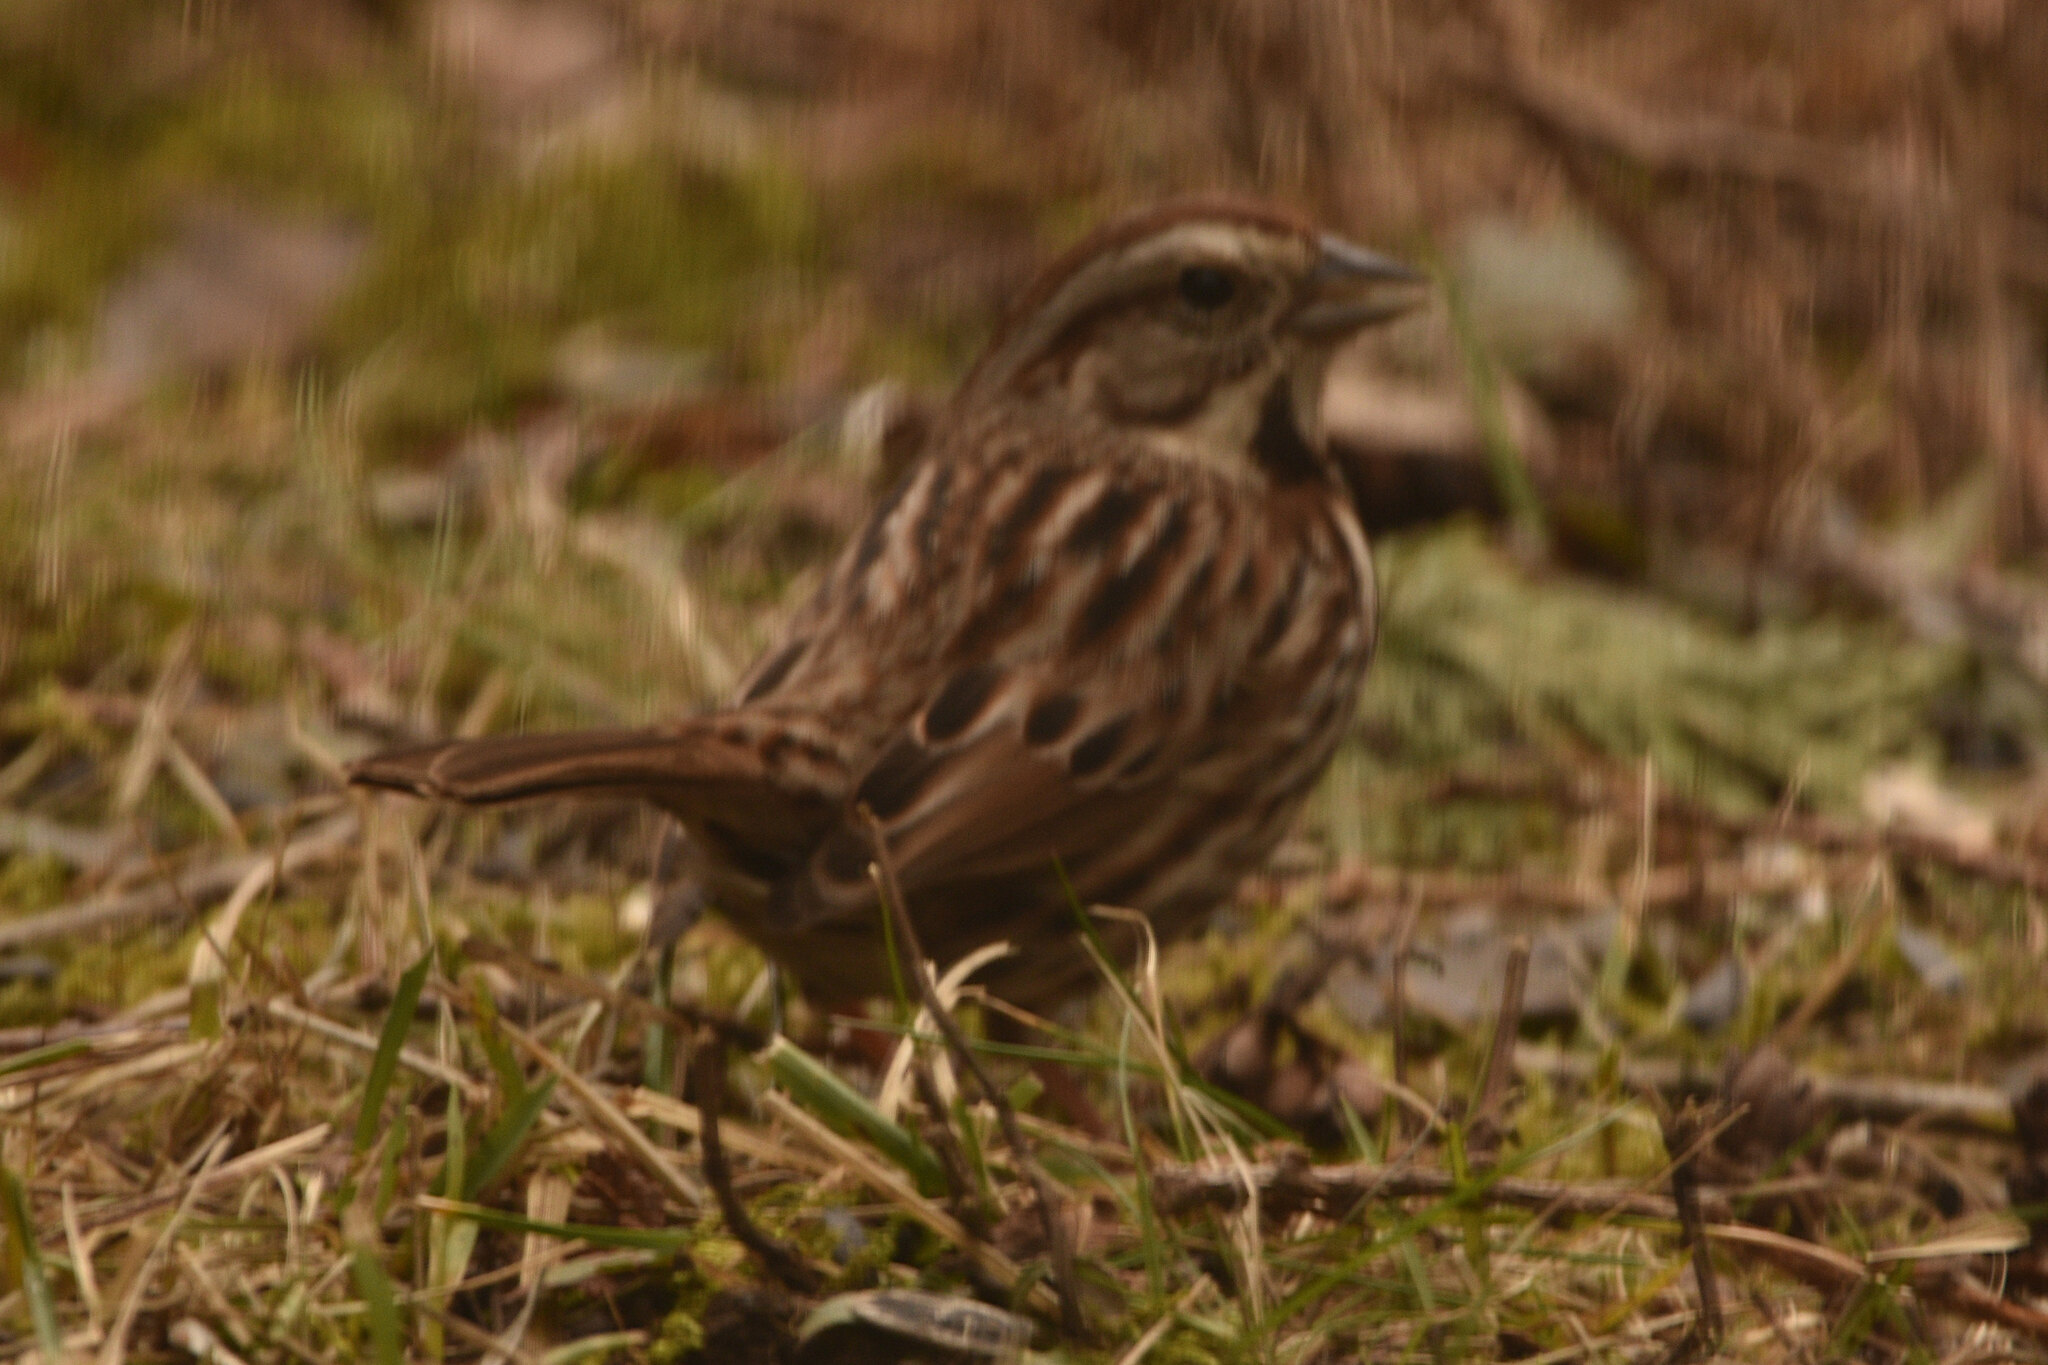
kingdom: Animalia
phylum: Chordata
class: Aves
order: Passeriformes
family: Passerellidae
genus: Melospiza
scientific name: Melospiza melodia
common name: Song sparrow
